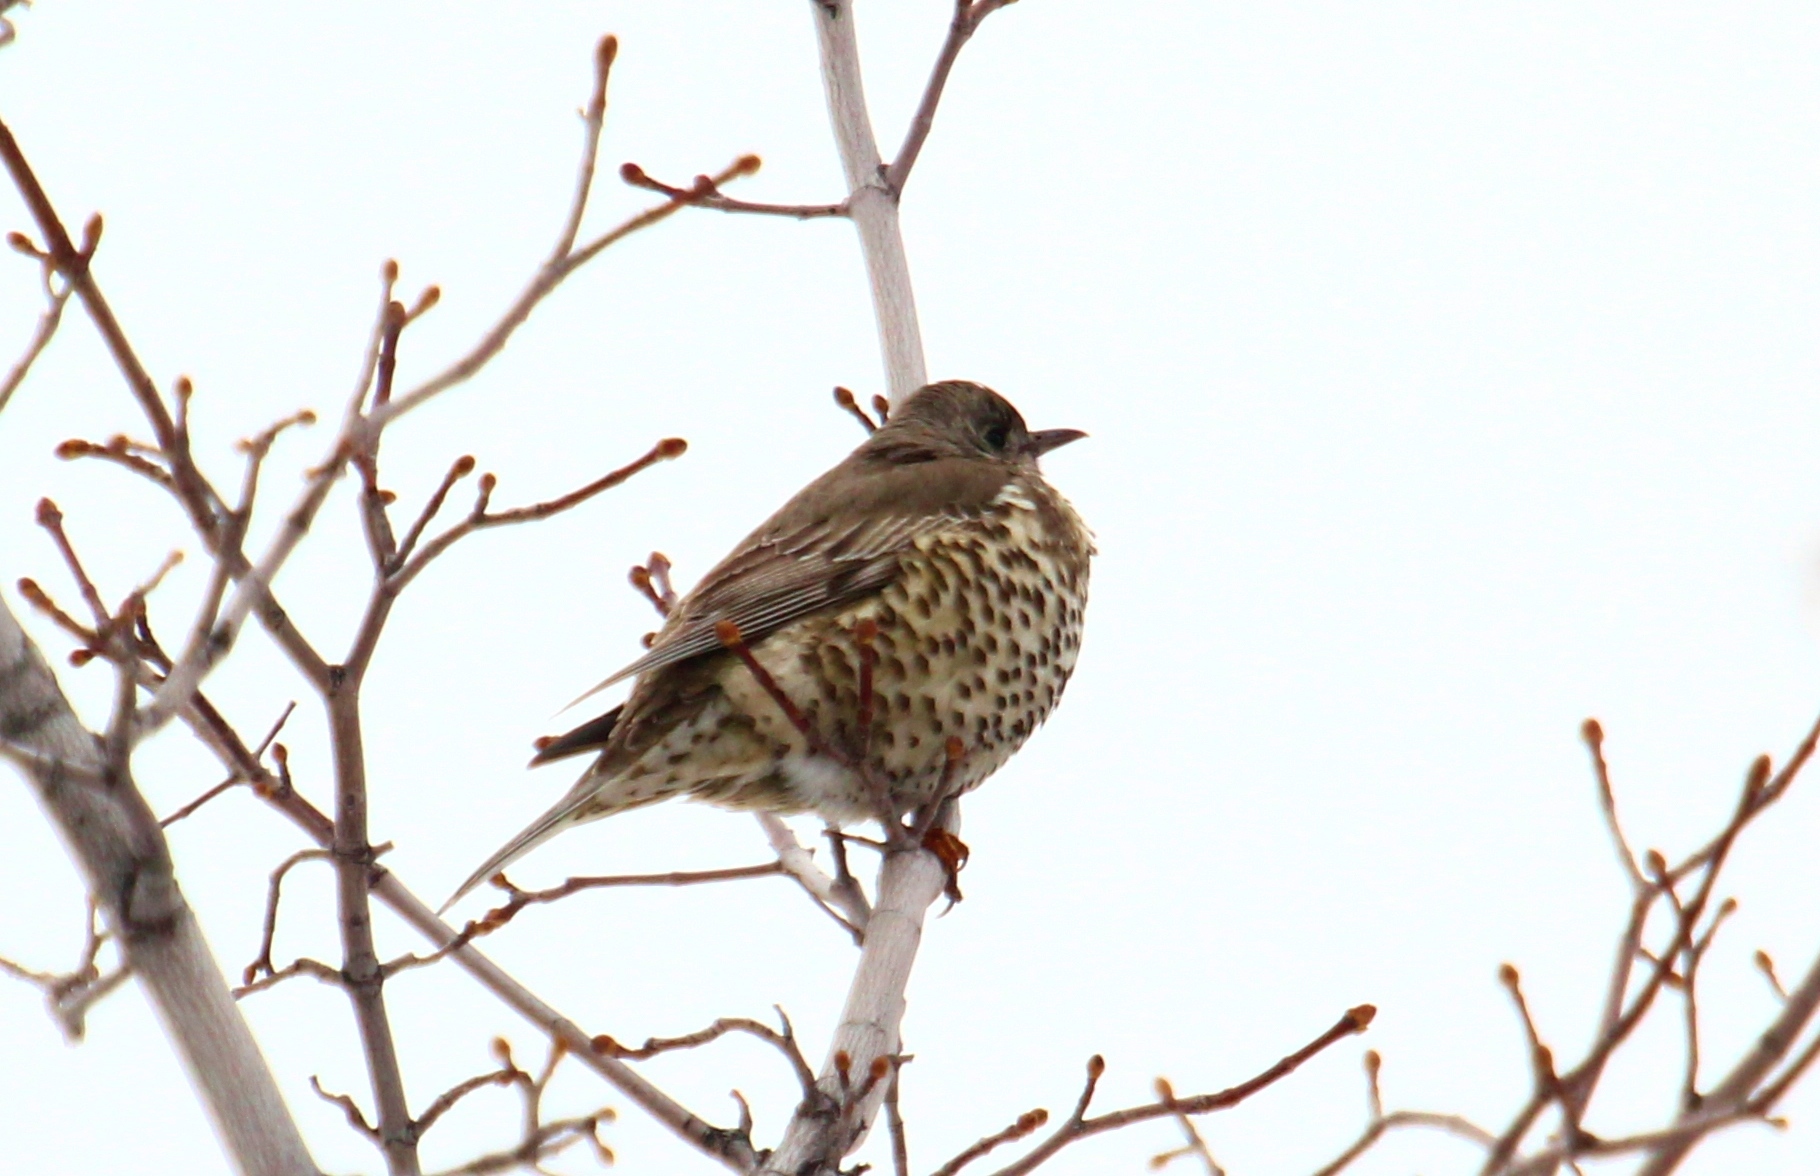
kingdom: Animalia
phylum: Chordata
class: Aves
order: Passeriformes
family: Turdidae
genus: Turdus
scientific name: Turdus viscivorus
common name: Mistle thrush
